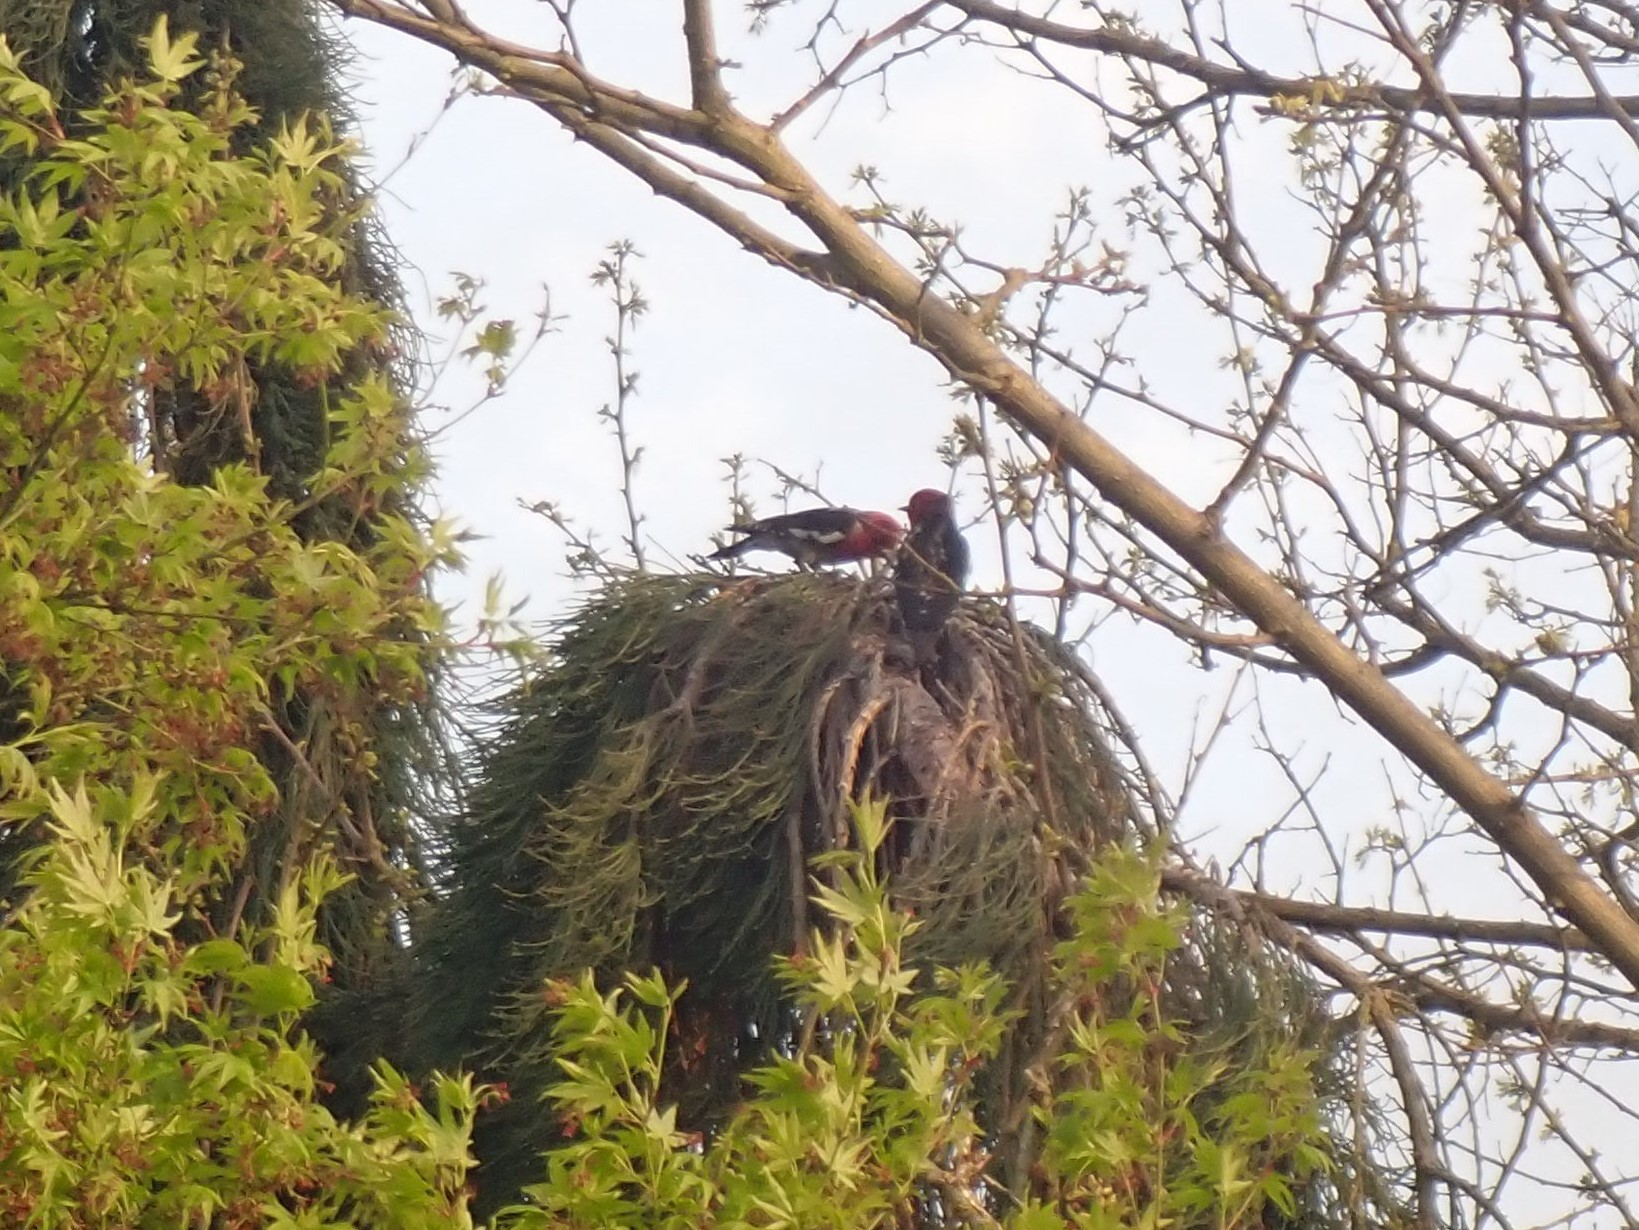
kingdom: Animalia
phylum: Chordata
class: Aves
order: Piciformes
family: Picidae
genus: Sphyrapicus
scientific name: Sphyrapicus ruber
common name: Red-breasted sapsucker
